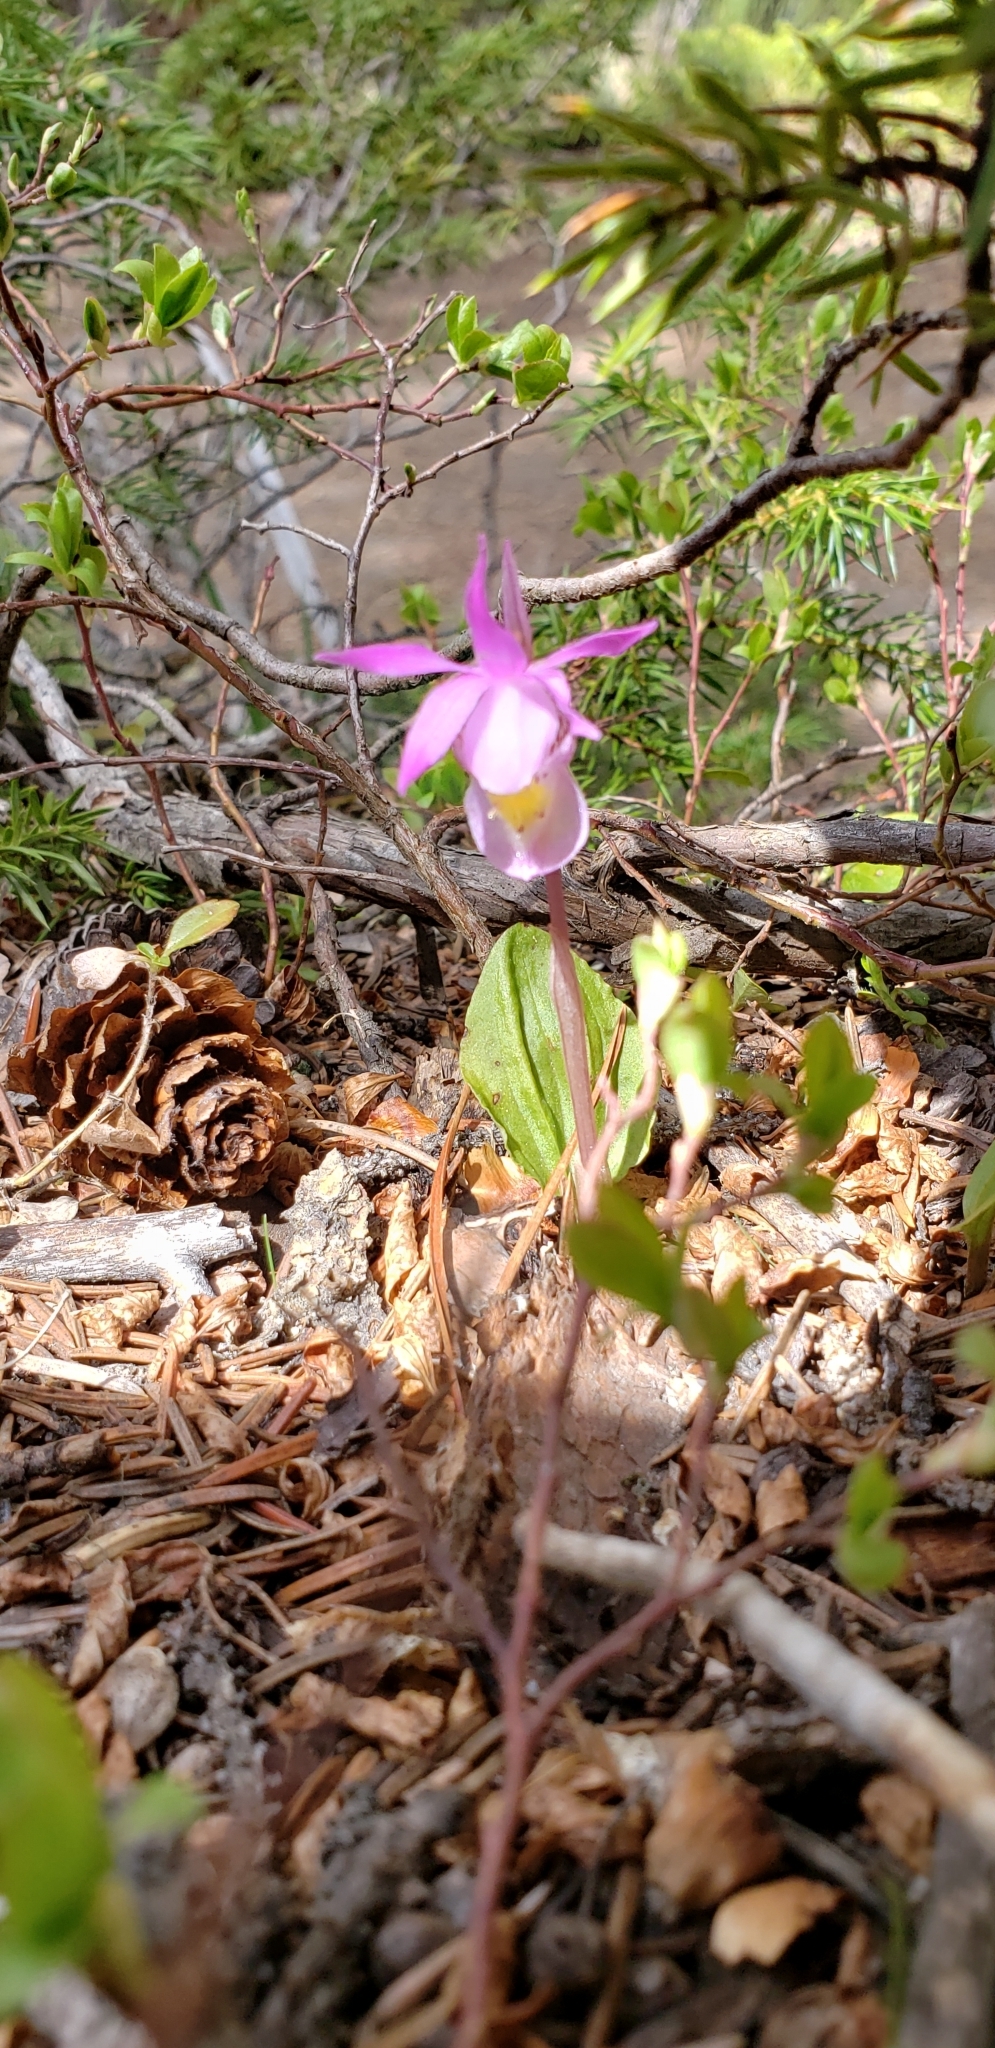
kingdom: Plantae
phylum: Tracheophyta
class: Liliopsida
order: Asparagales
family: Orchidaceae
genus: Calypso
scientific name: Calypso bulbosa
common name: Calypso
